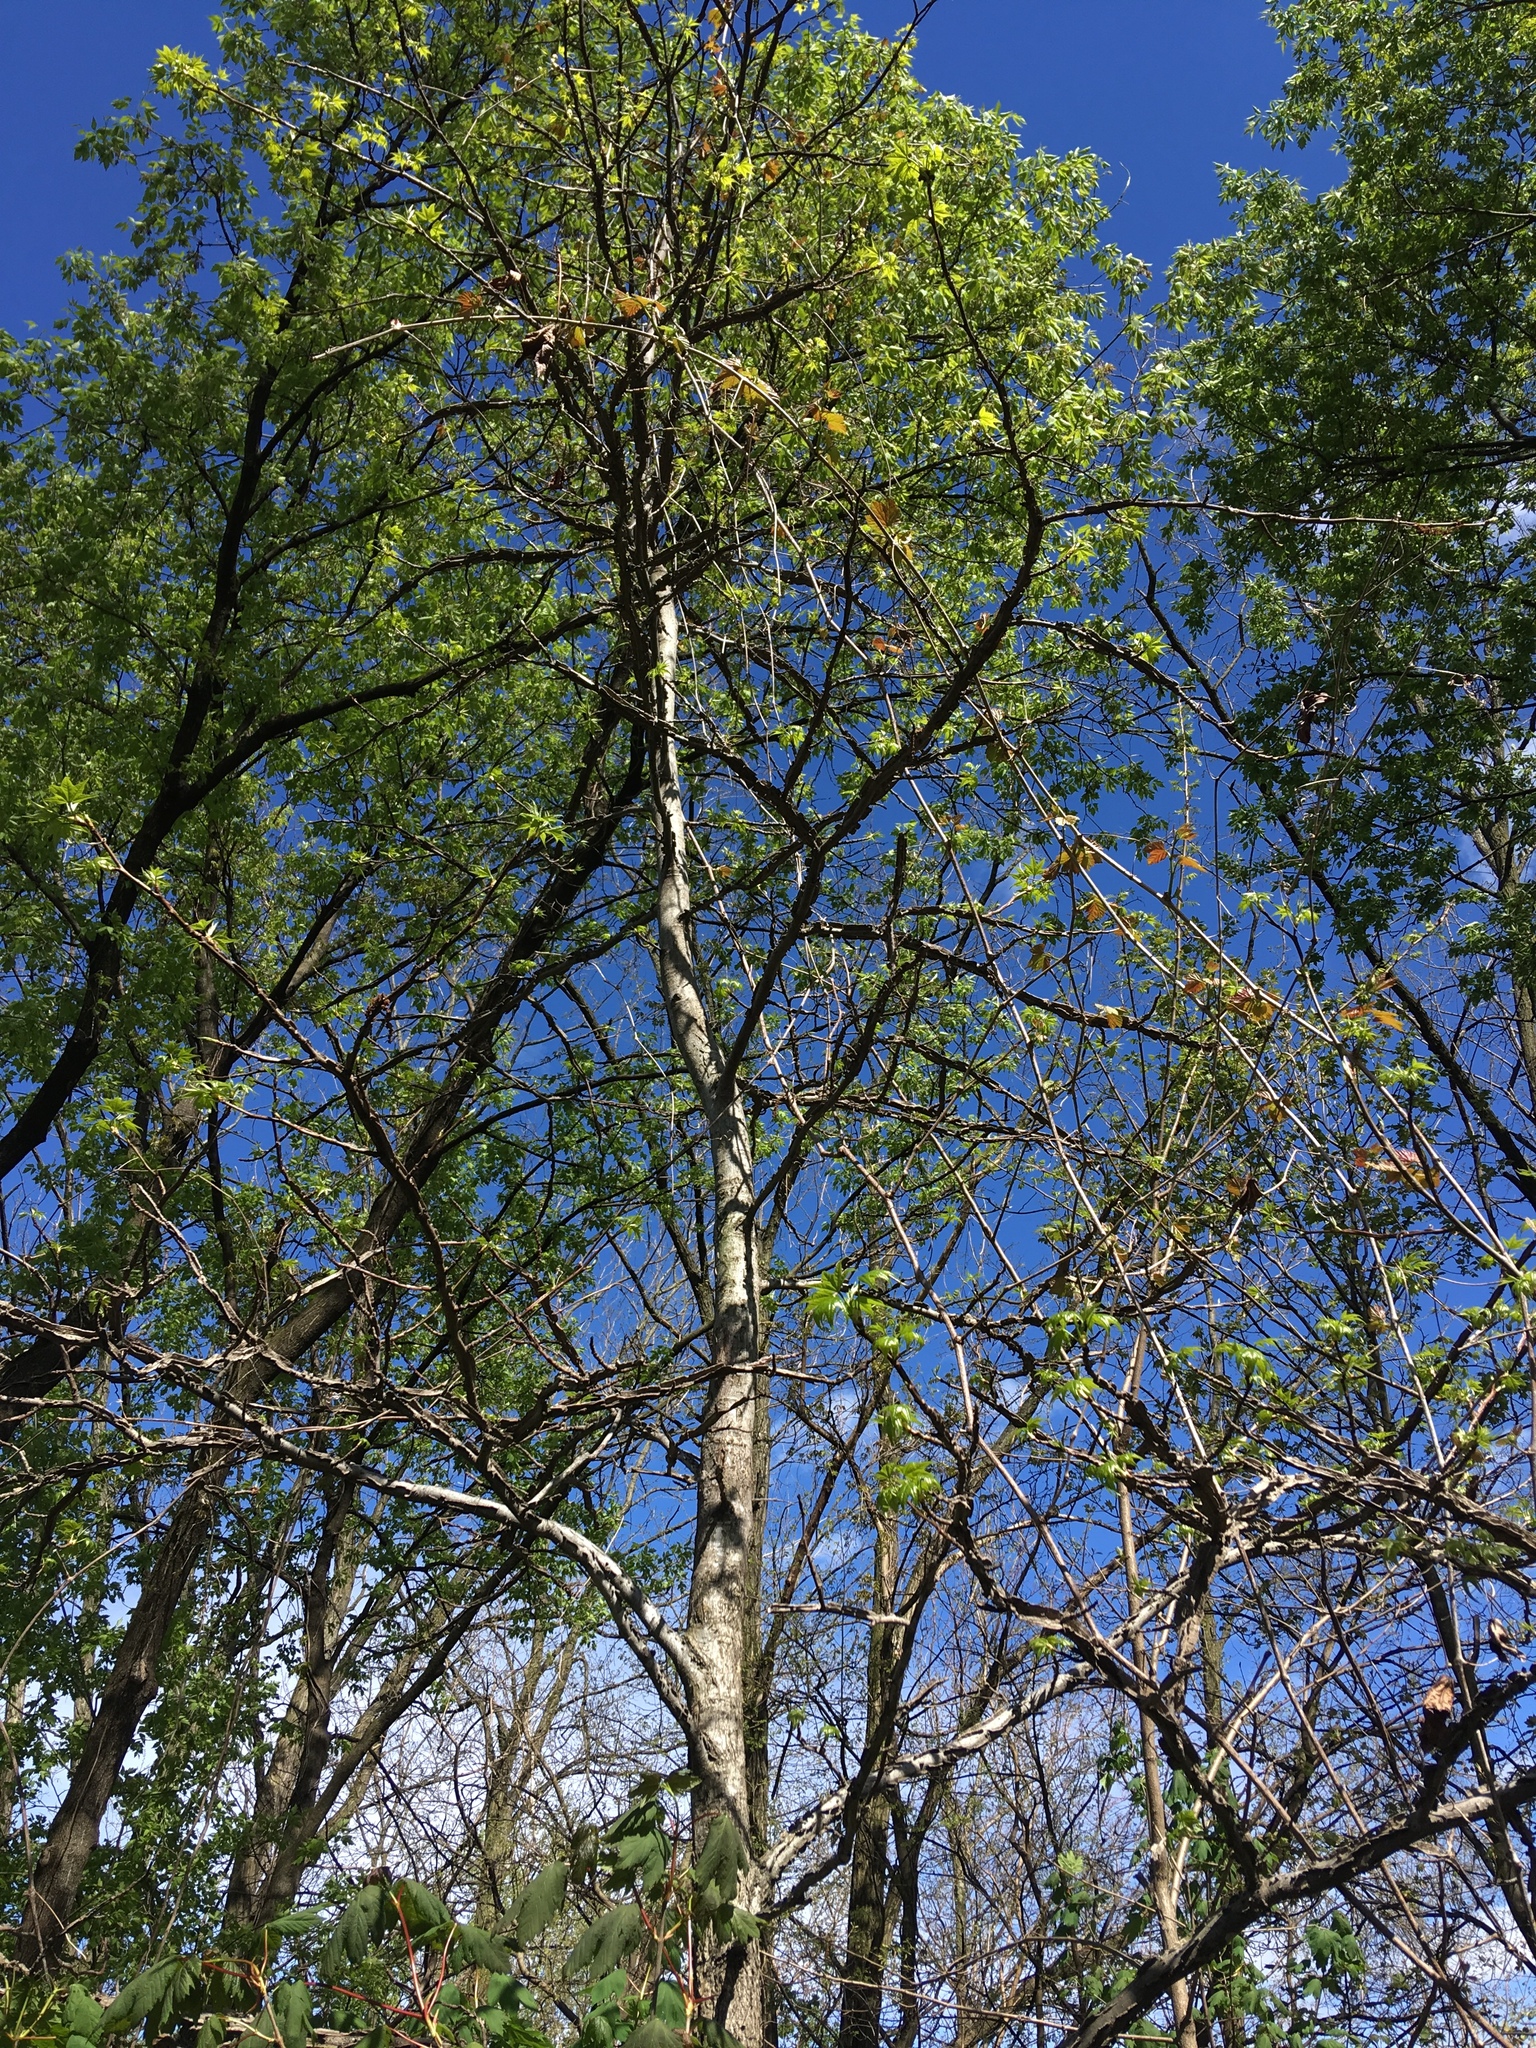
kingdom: Plantae
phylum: Tracheophyta
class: Magnoliopsida
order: Saxifragales
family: Altingiaceae
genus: Liquidambar
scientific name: Liquidambar styraciflua
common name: Sweet gum
